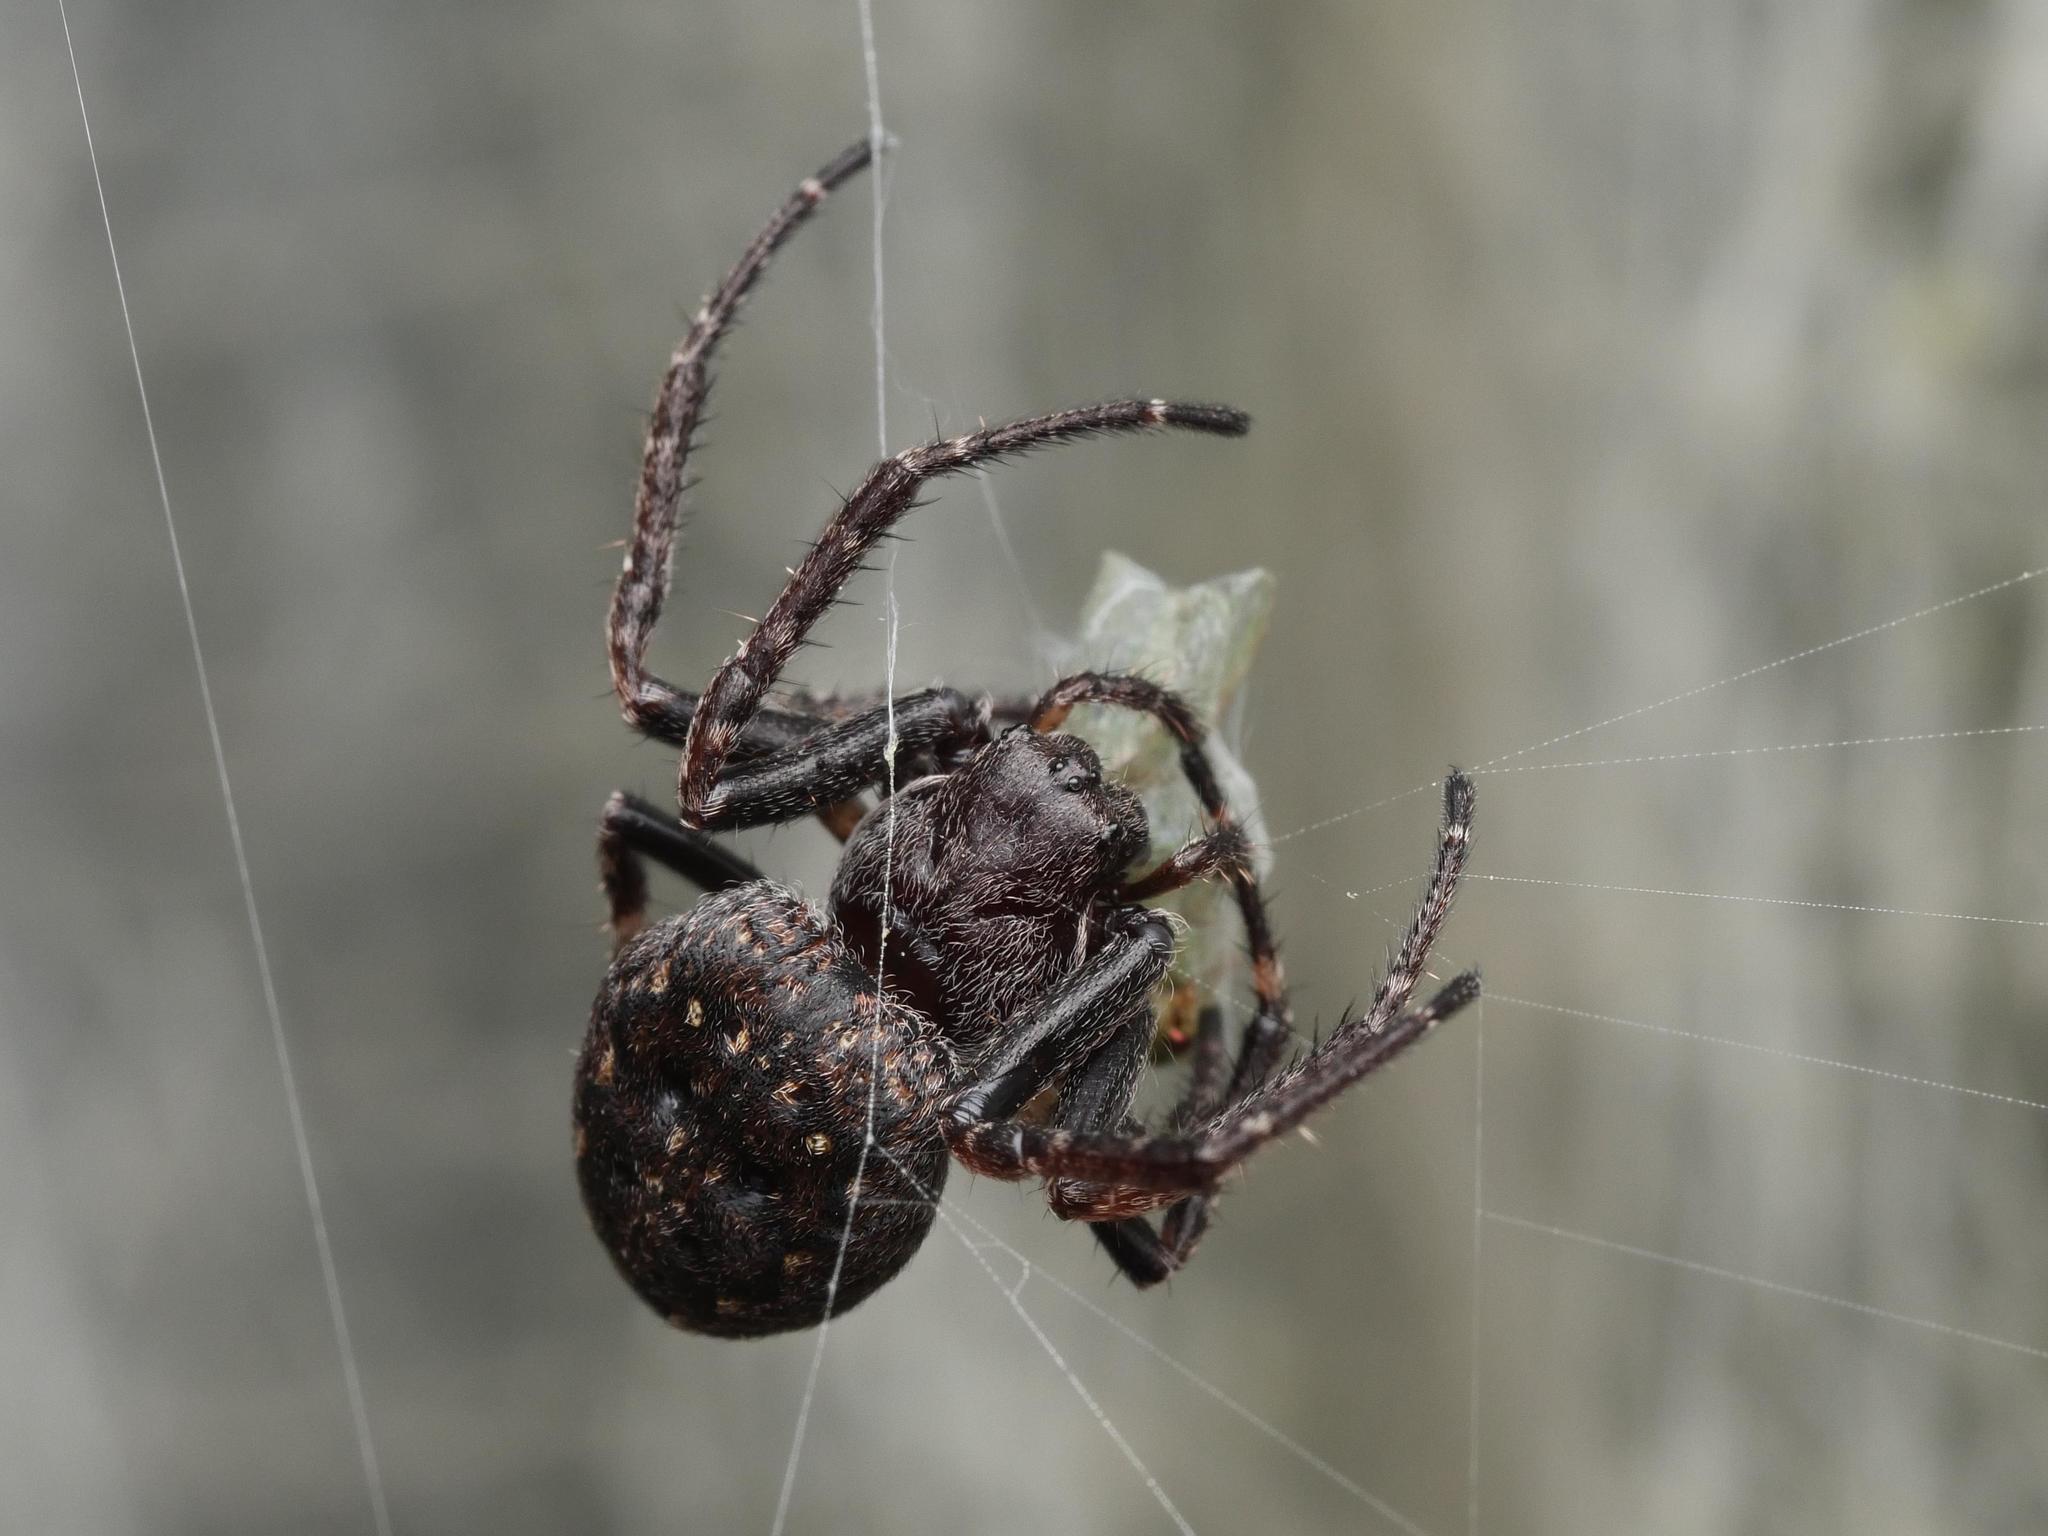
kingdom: Animalia
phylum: Arthropoda
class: Arachnida
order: Araneae
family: Araneidae
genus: Nuctenea
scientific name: Nuctenea umbratica
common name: Toad spider
